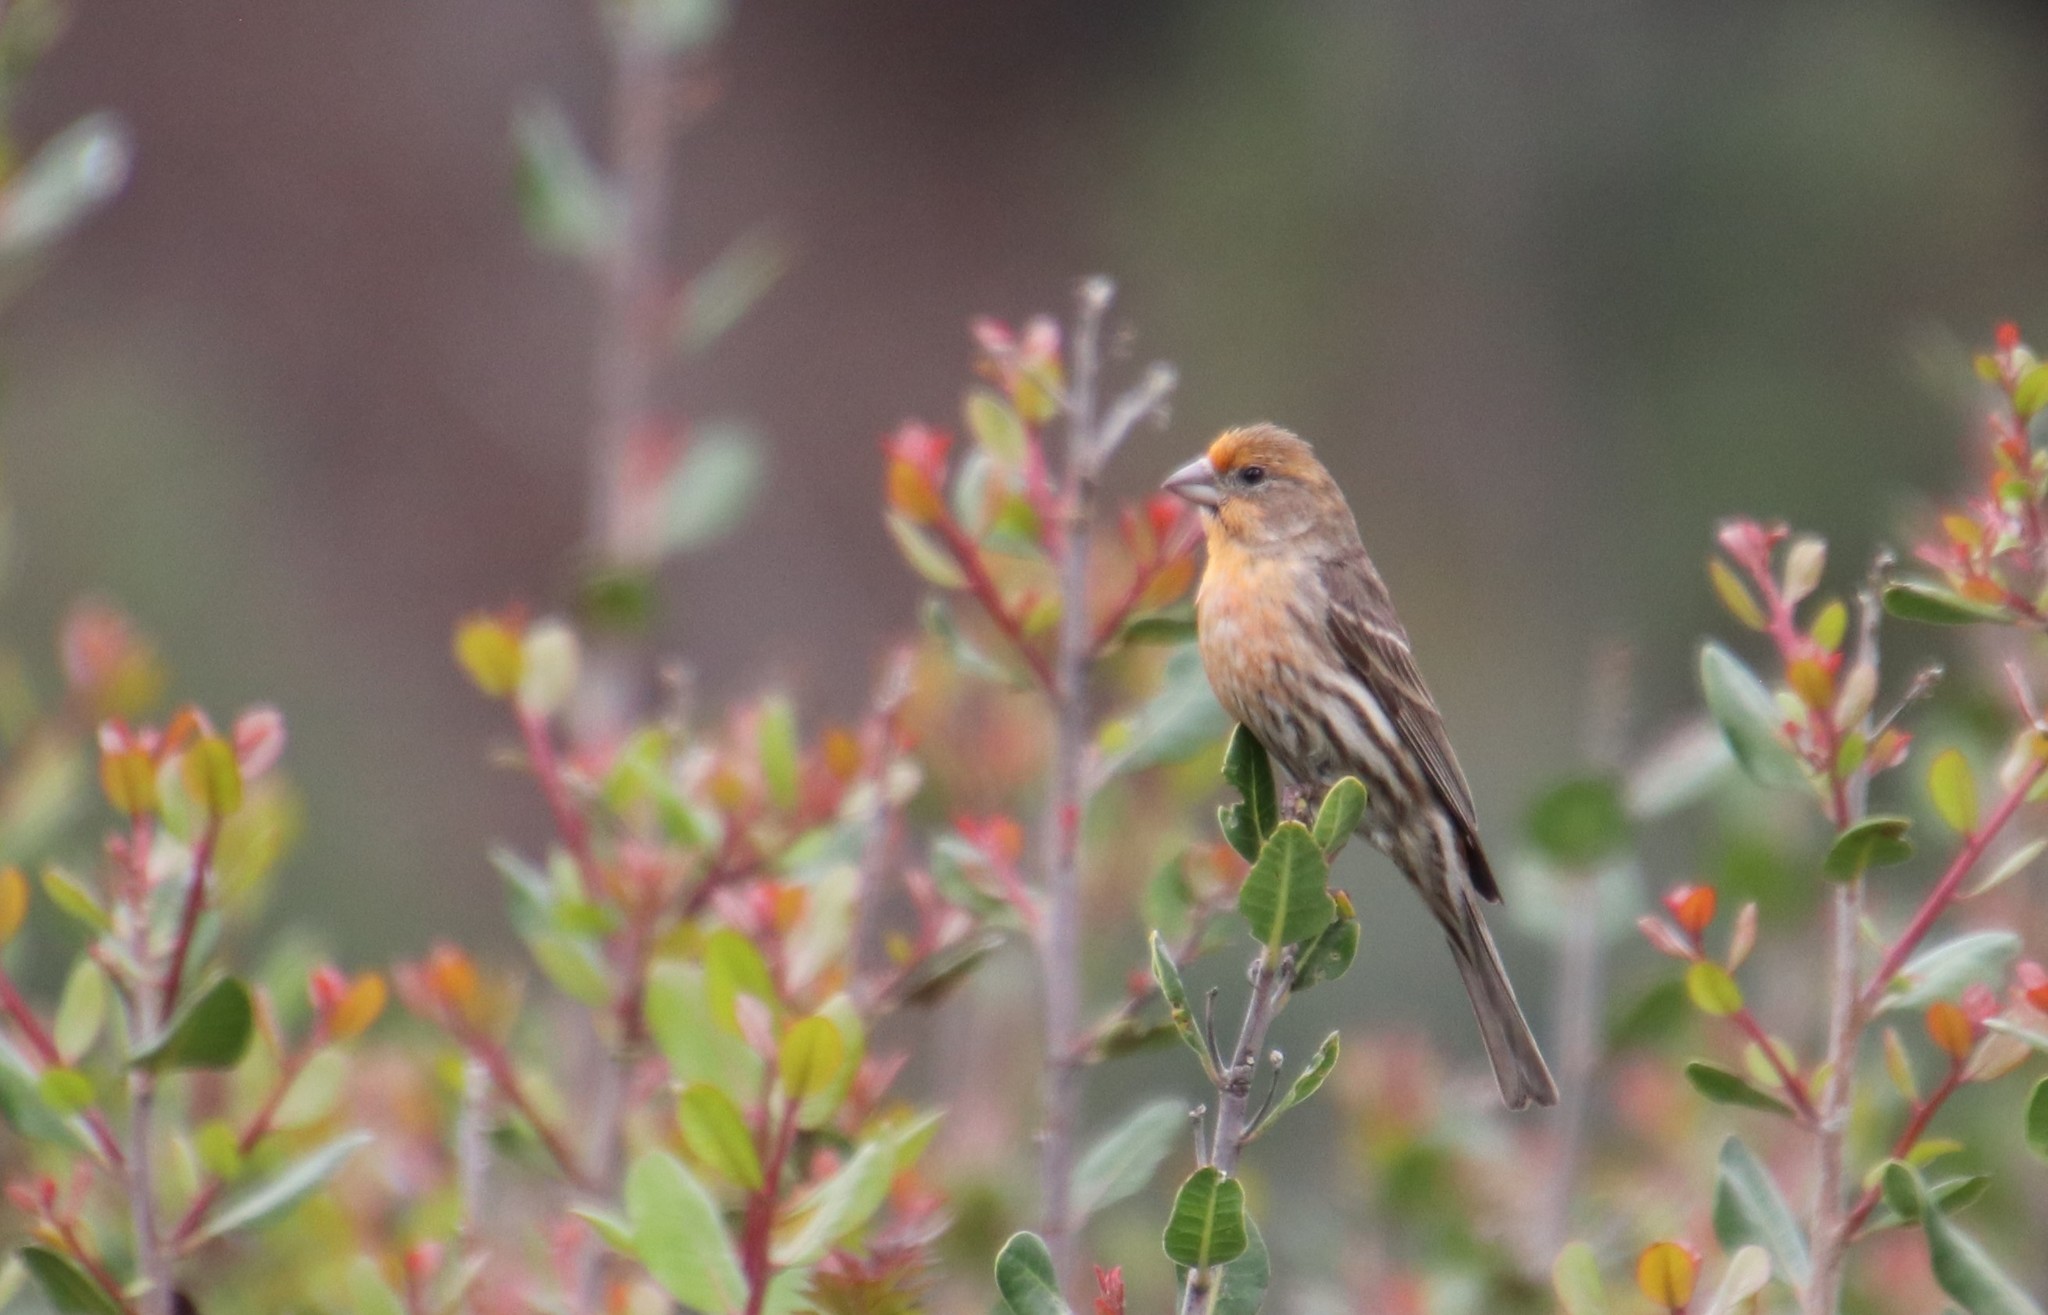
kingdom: Animalia
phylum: Chordata
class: Aves
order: Passeriformes
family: Fringillidae
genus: Haemorhous
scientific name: Haemorhous mexicanus
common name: House finch
